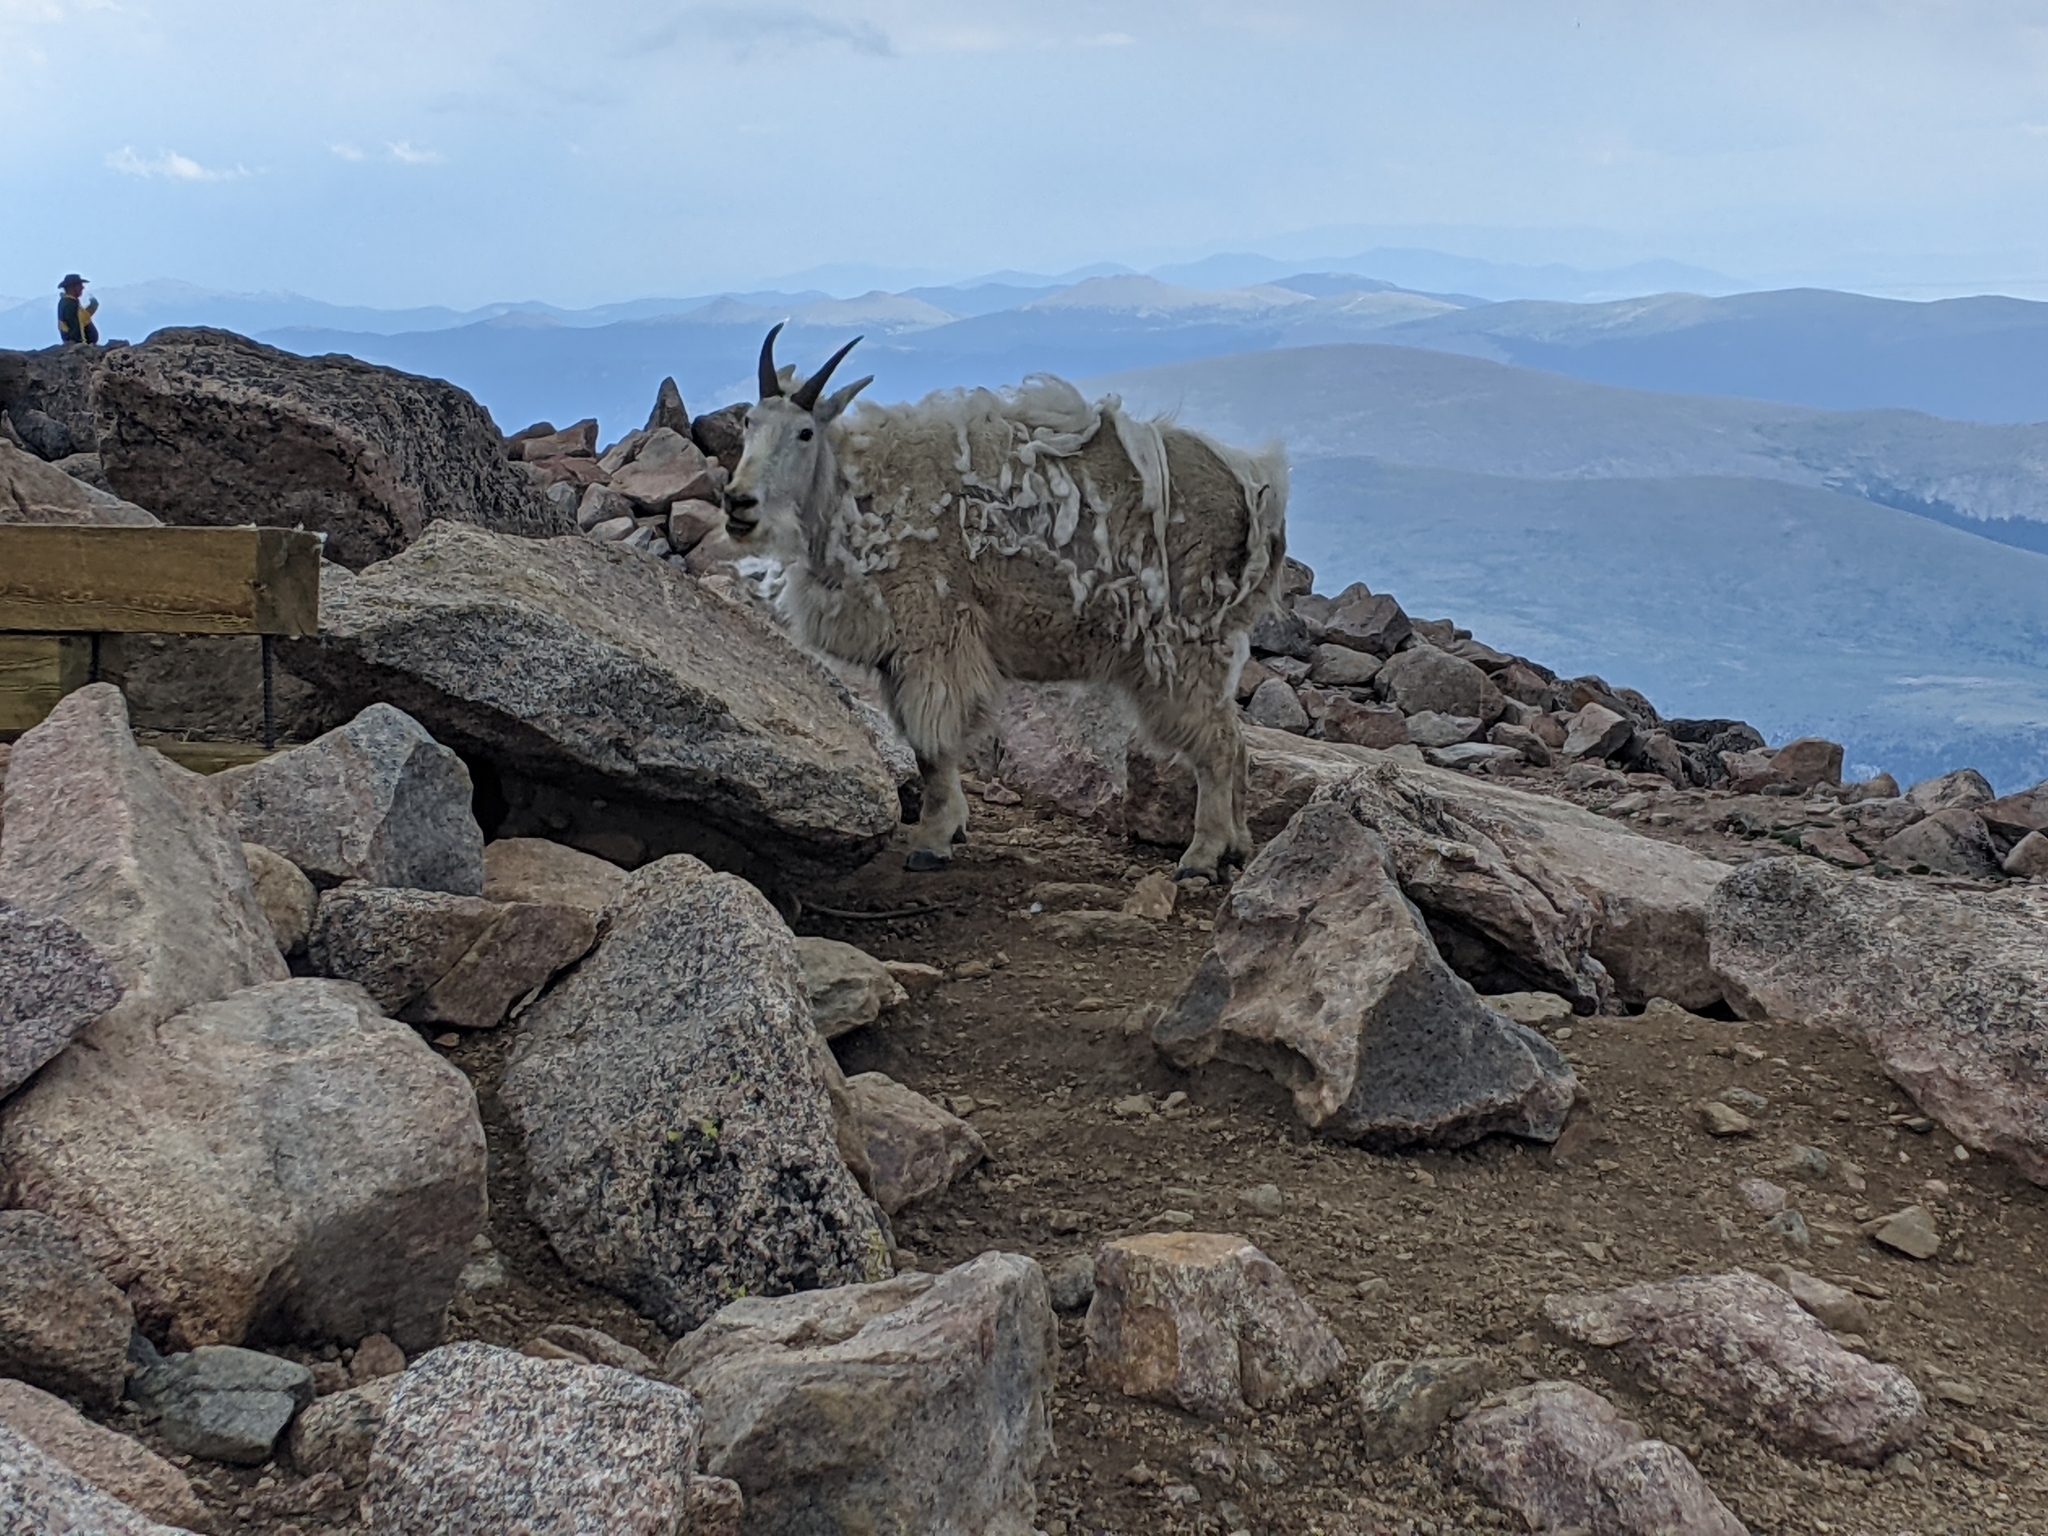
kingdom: Animalia
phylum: Chordata
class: Mammalia
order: Artiodactyla
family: Bovidae
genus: Oreamnos
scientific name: Oreamnos americanus
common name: Mountain goat
